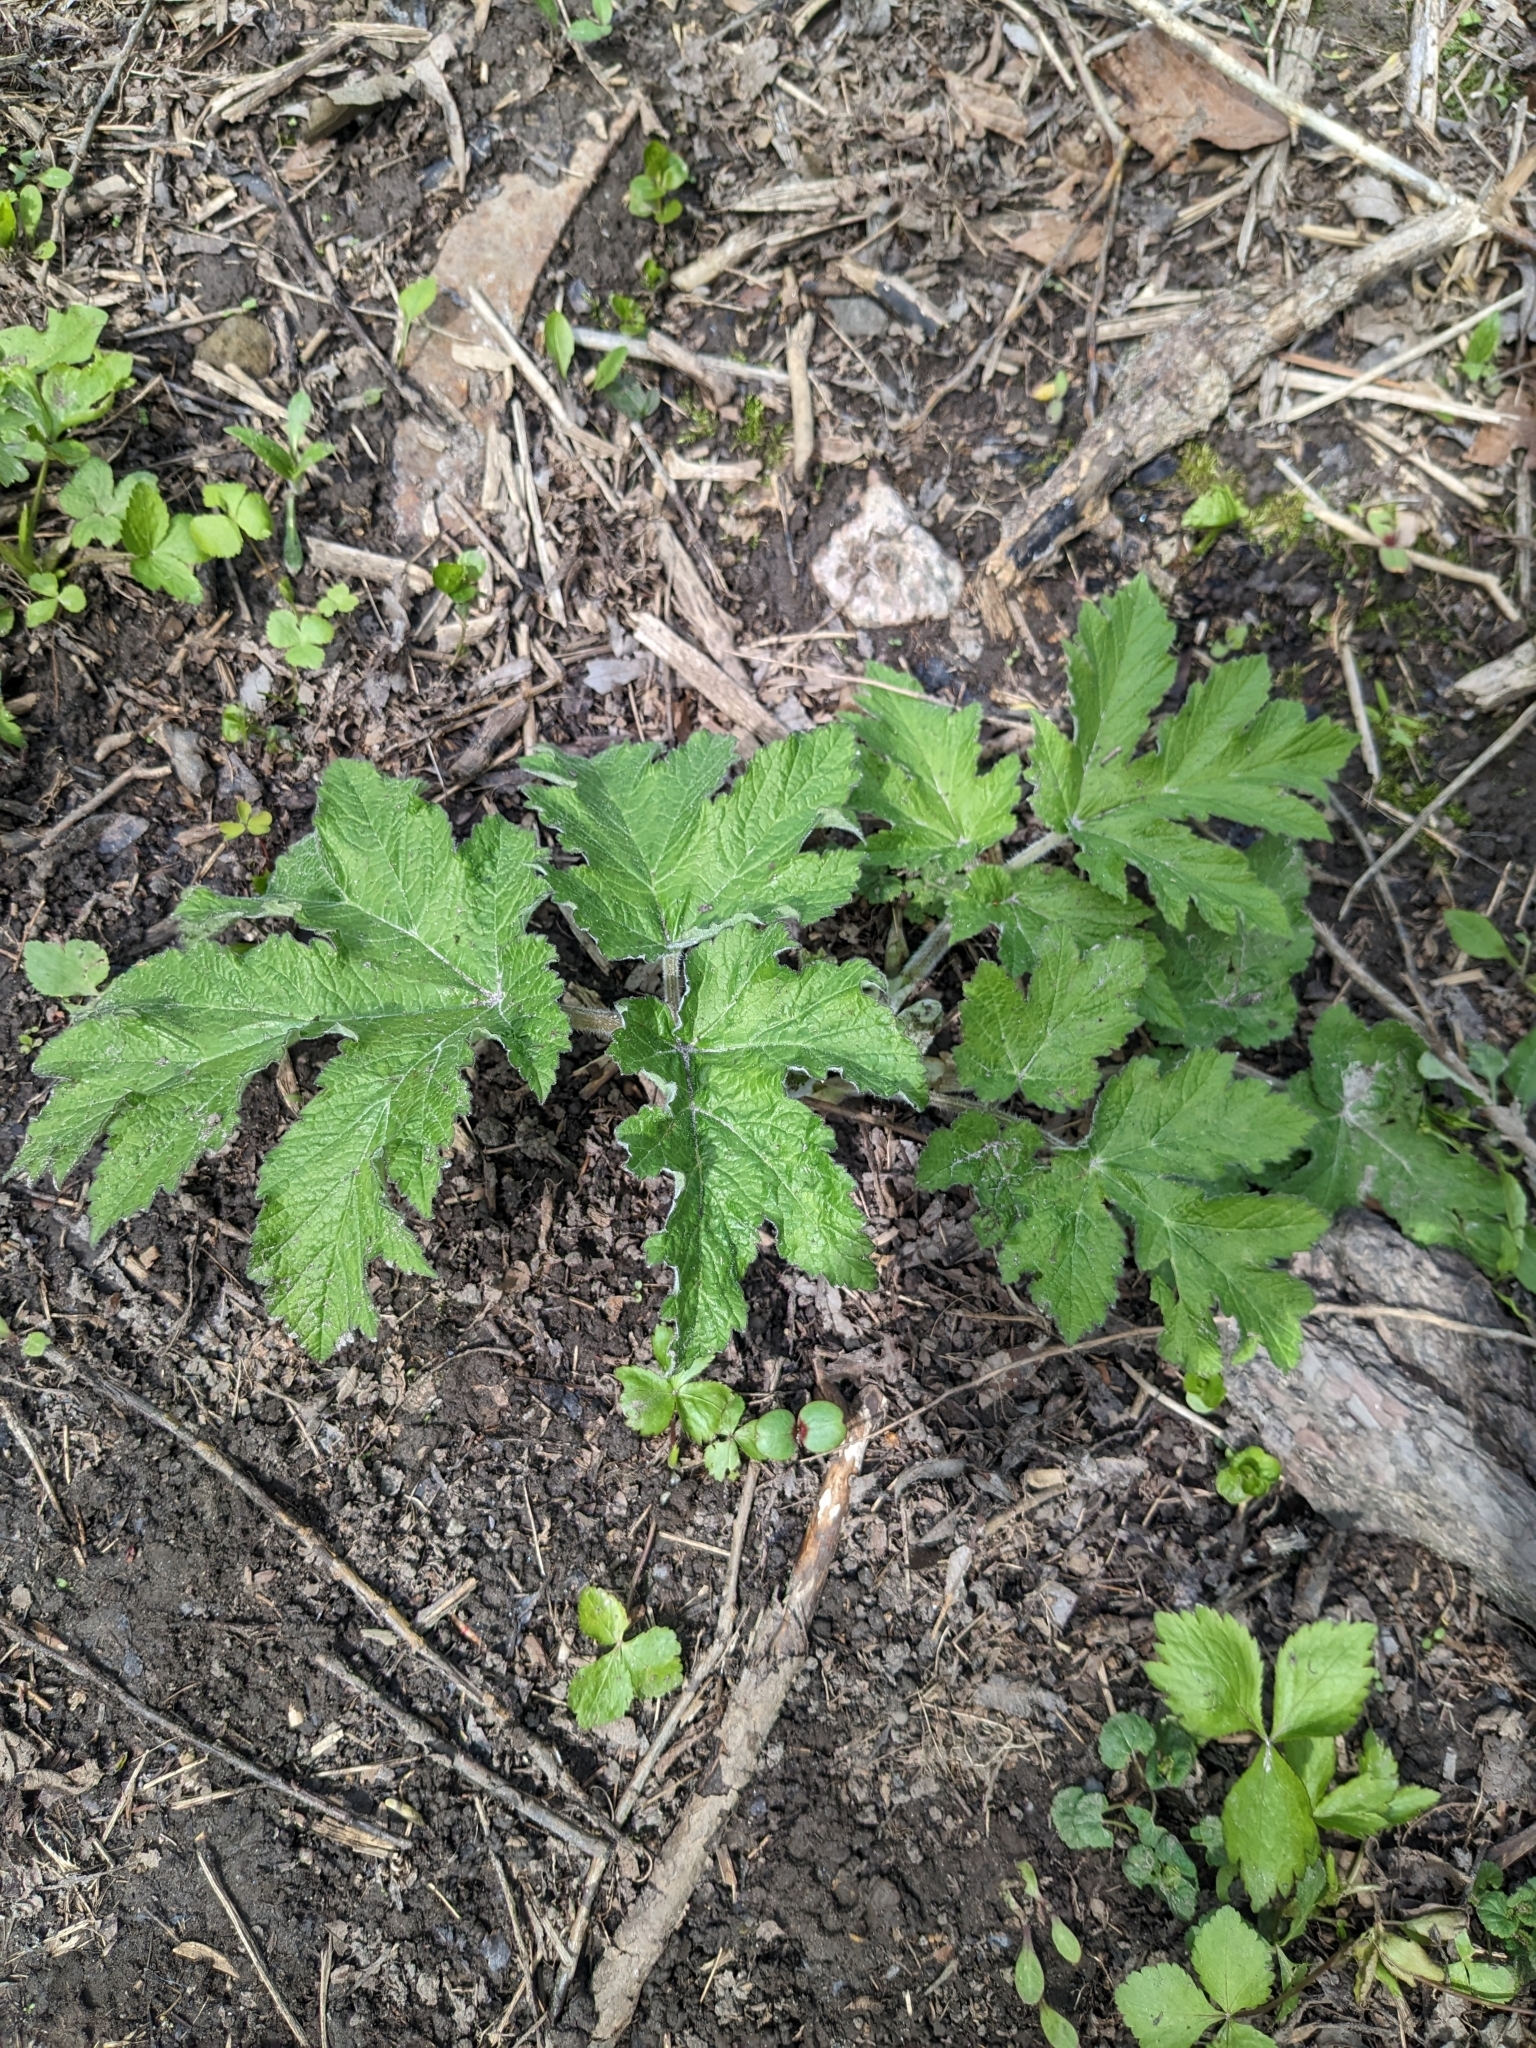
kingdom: Plantae
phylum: Tracheophyta
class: Magnoliopsida
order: Apiales
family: Apiaceae
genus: Heracleum
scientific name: Heracleum maximum
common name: American cow parsnip
